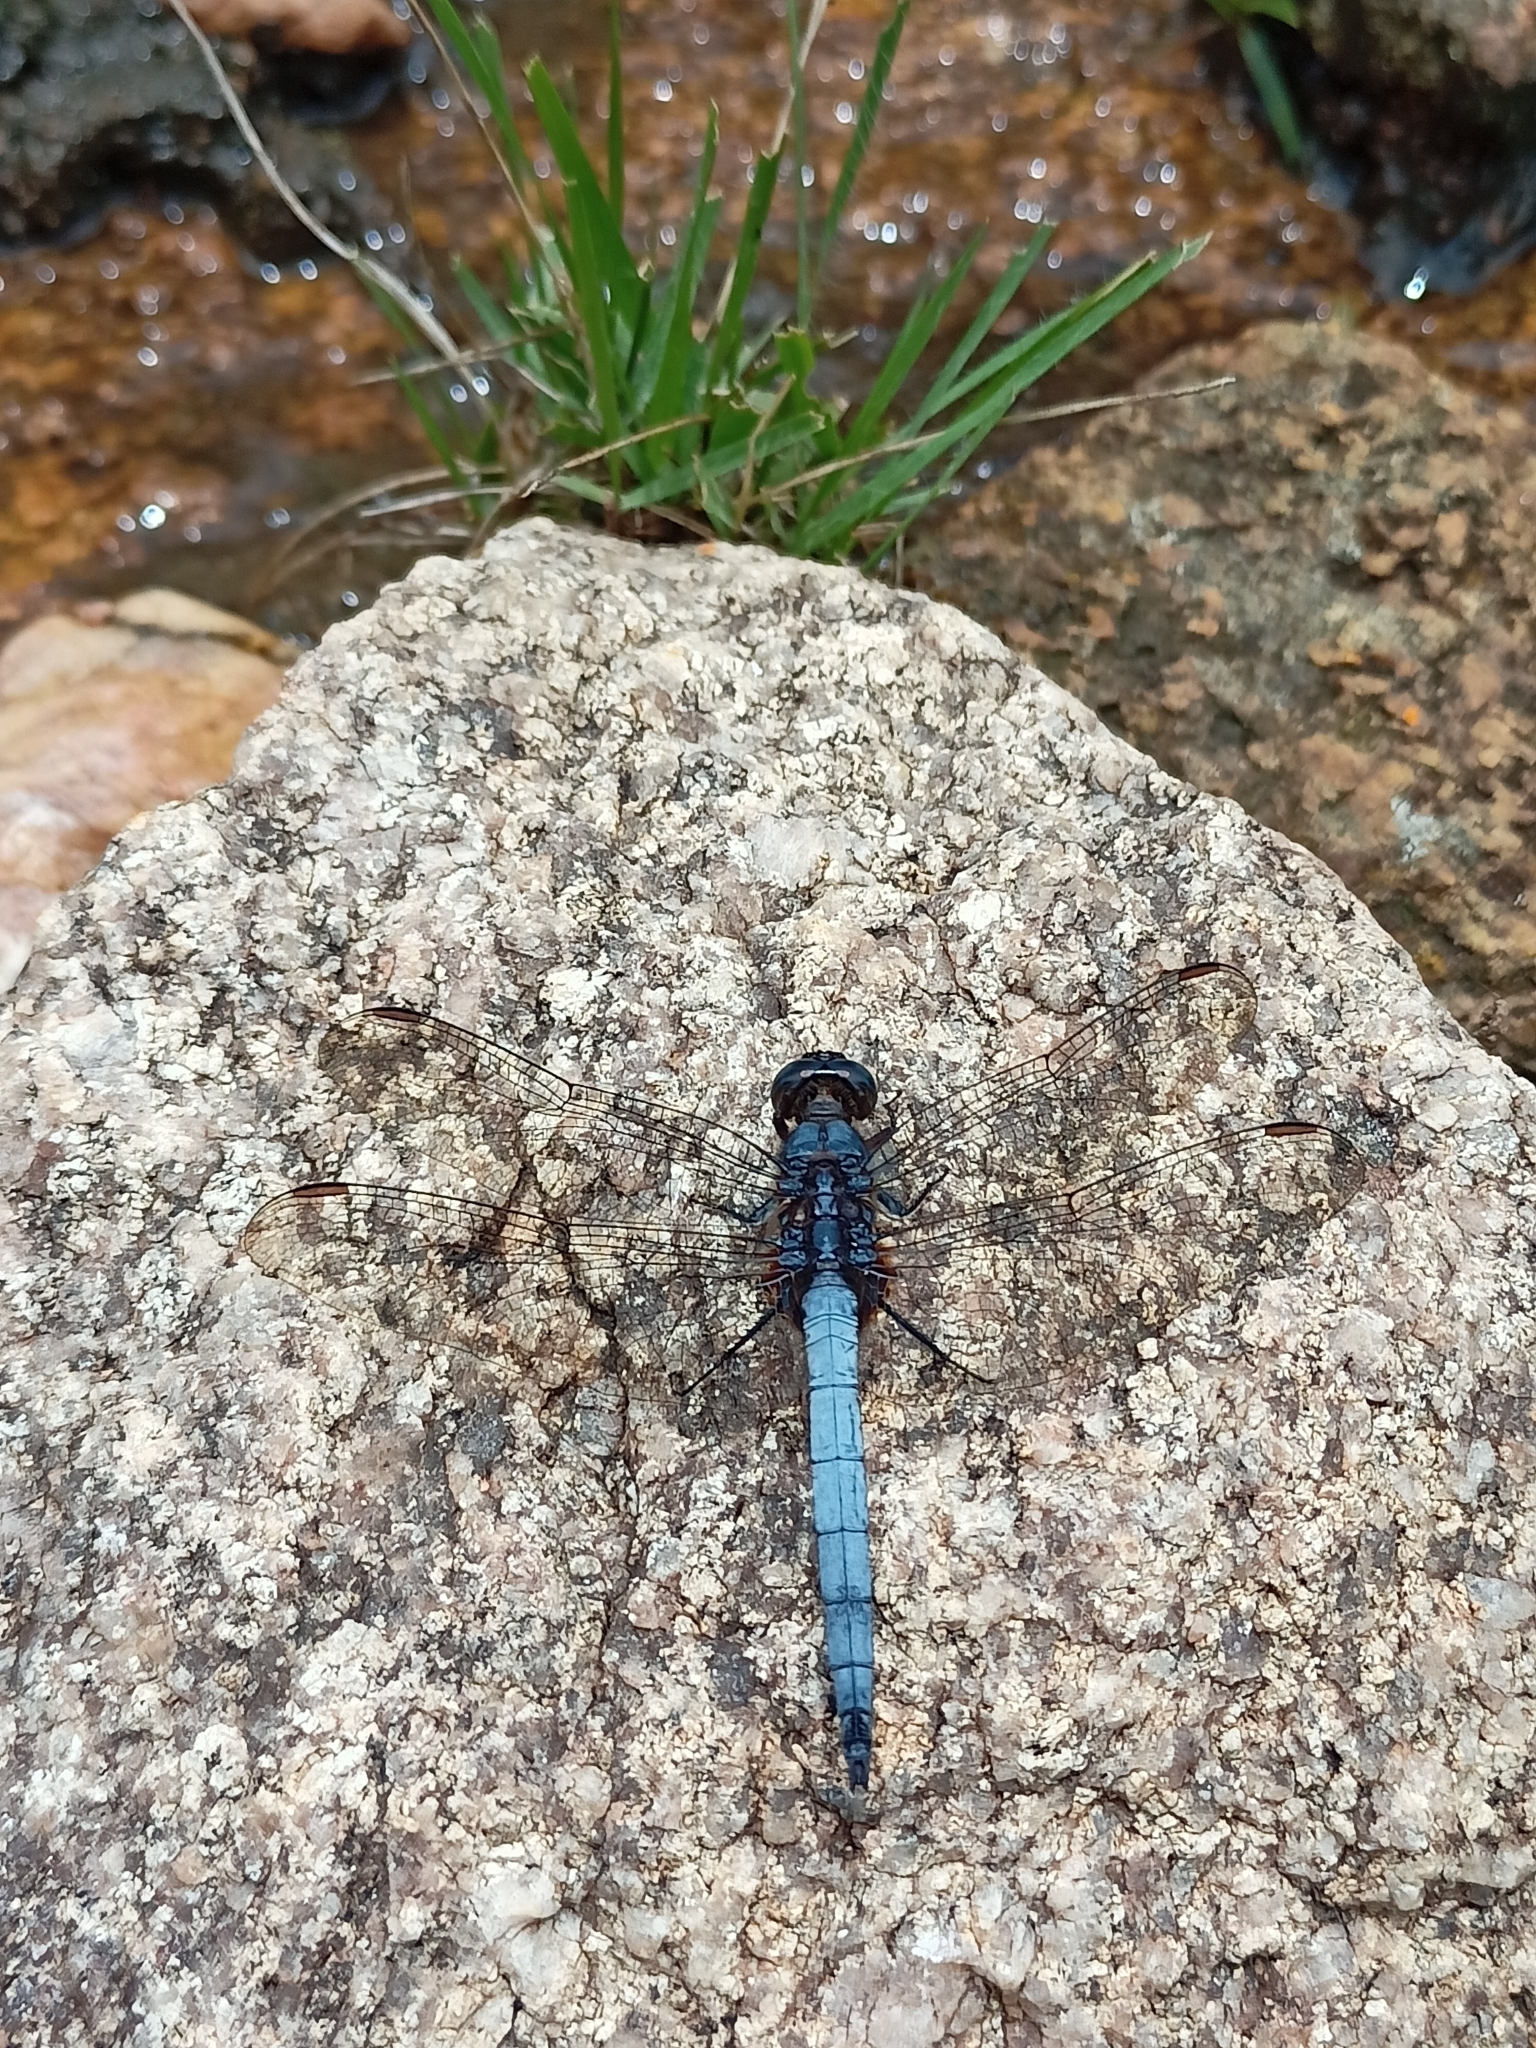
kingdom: Animalia
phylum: Arthropoda
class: Insecta
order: Odonata
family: Libellulidae
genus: Orthetrum
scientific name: Orthetrum glaucum
